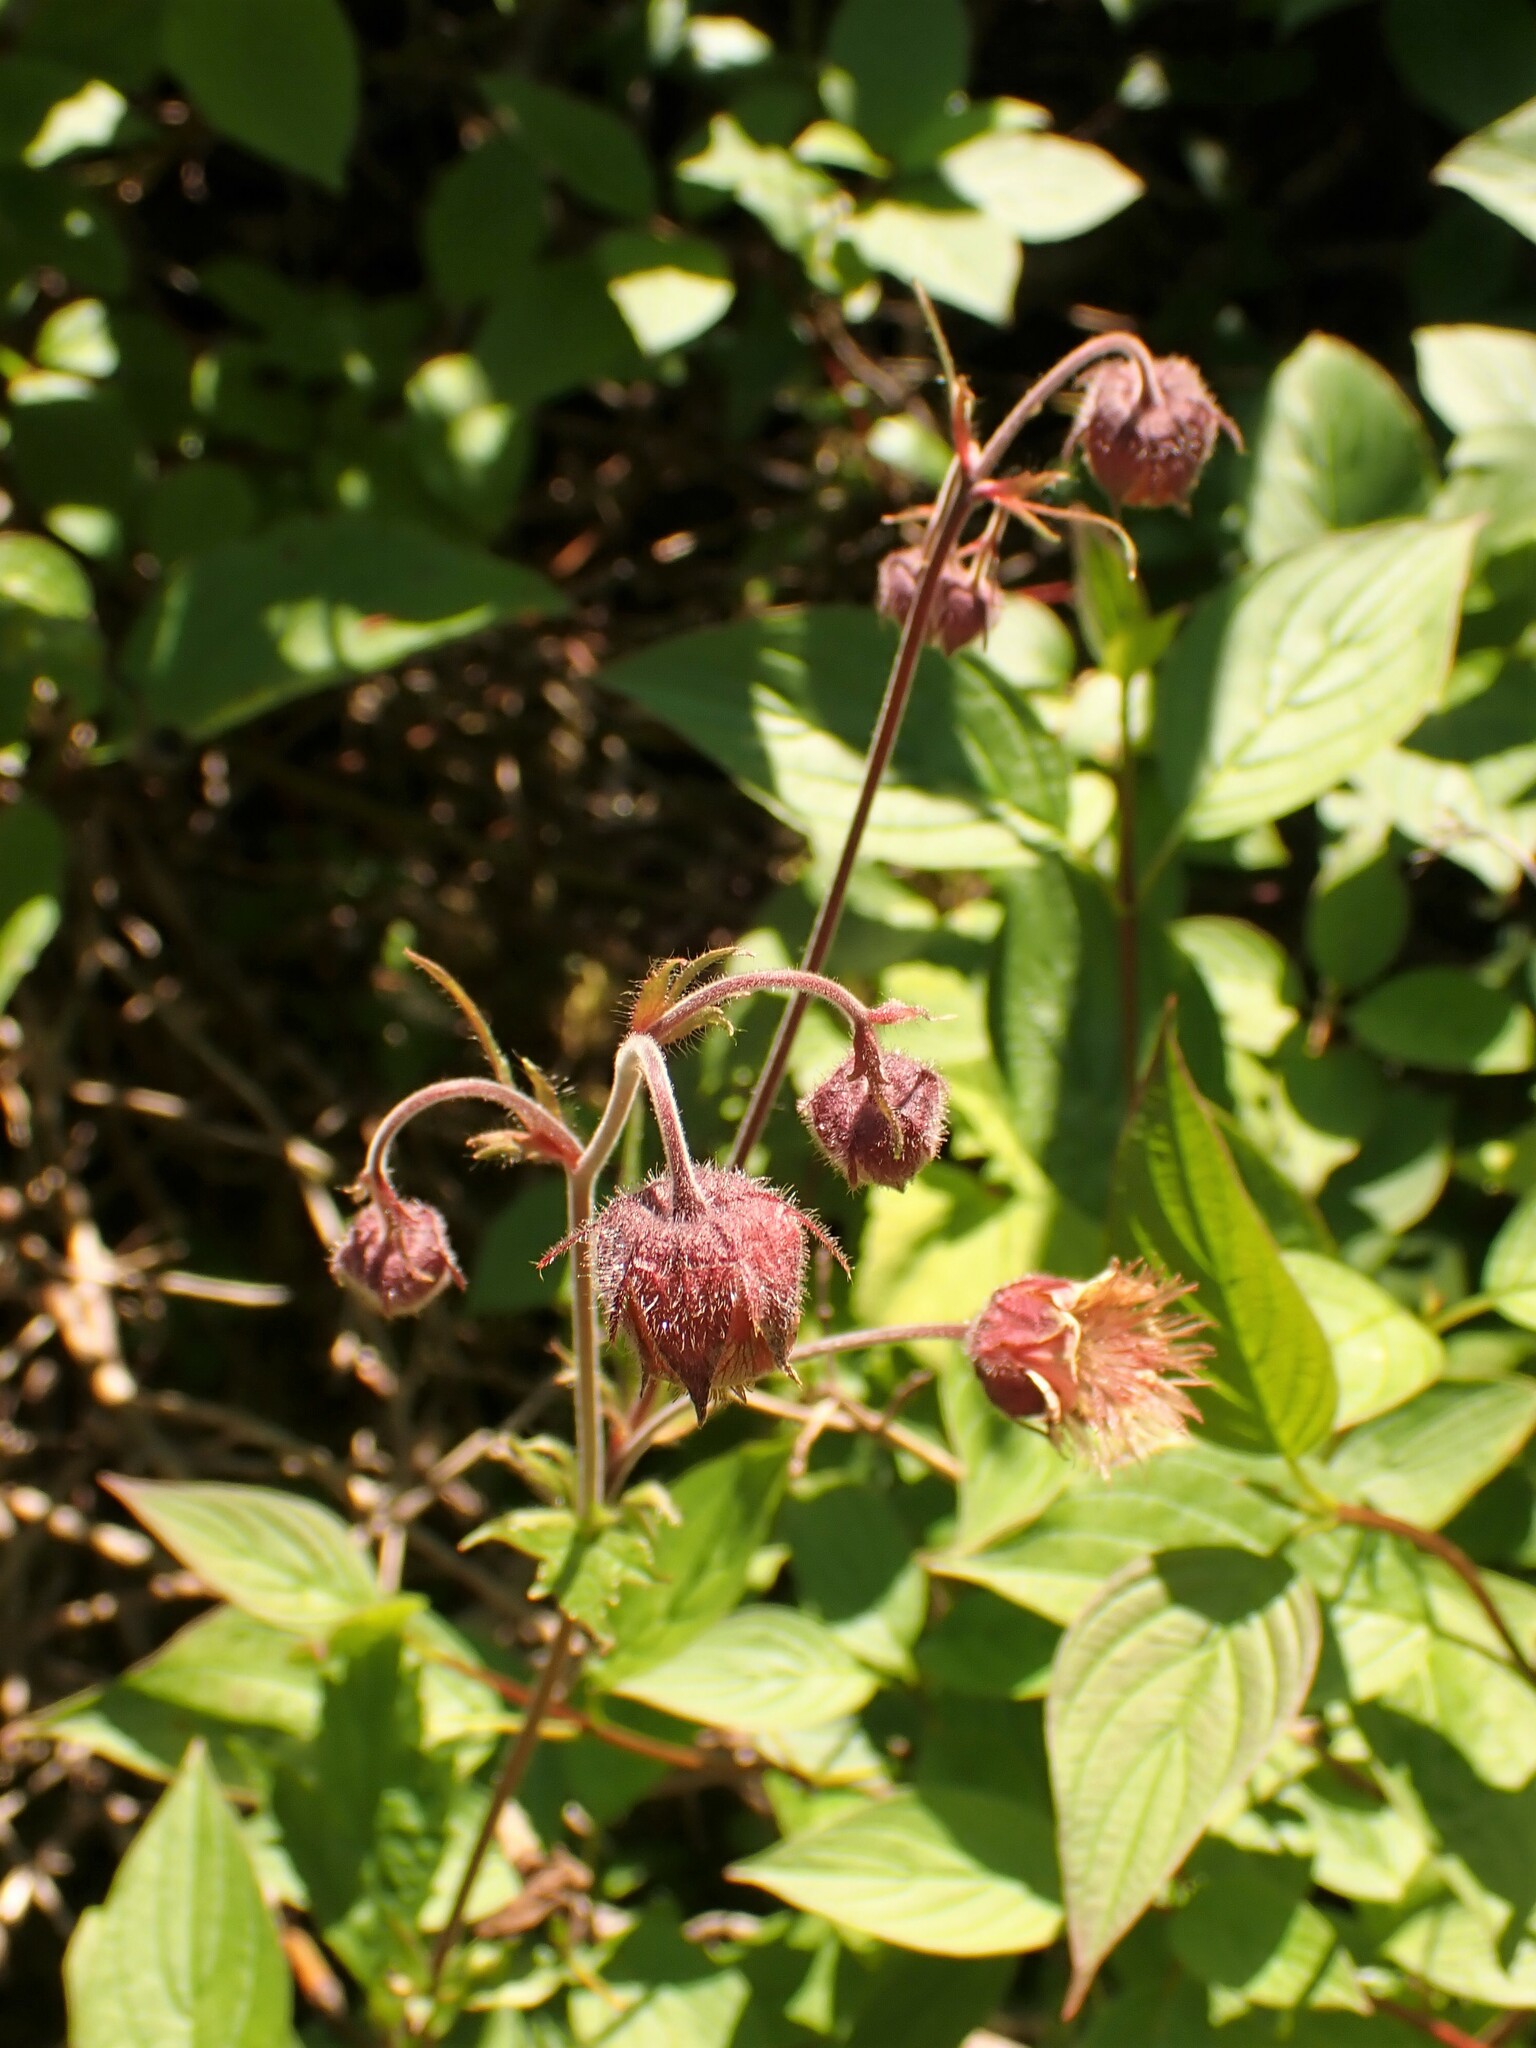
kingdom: Plantae
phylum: Tracheophyta
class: Magnoliopsida
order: Rosales
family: Rosaceae
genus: Geum
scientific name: Geum rivale
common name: Water avens
